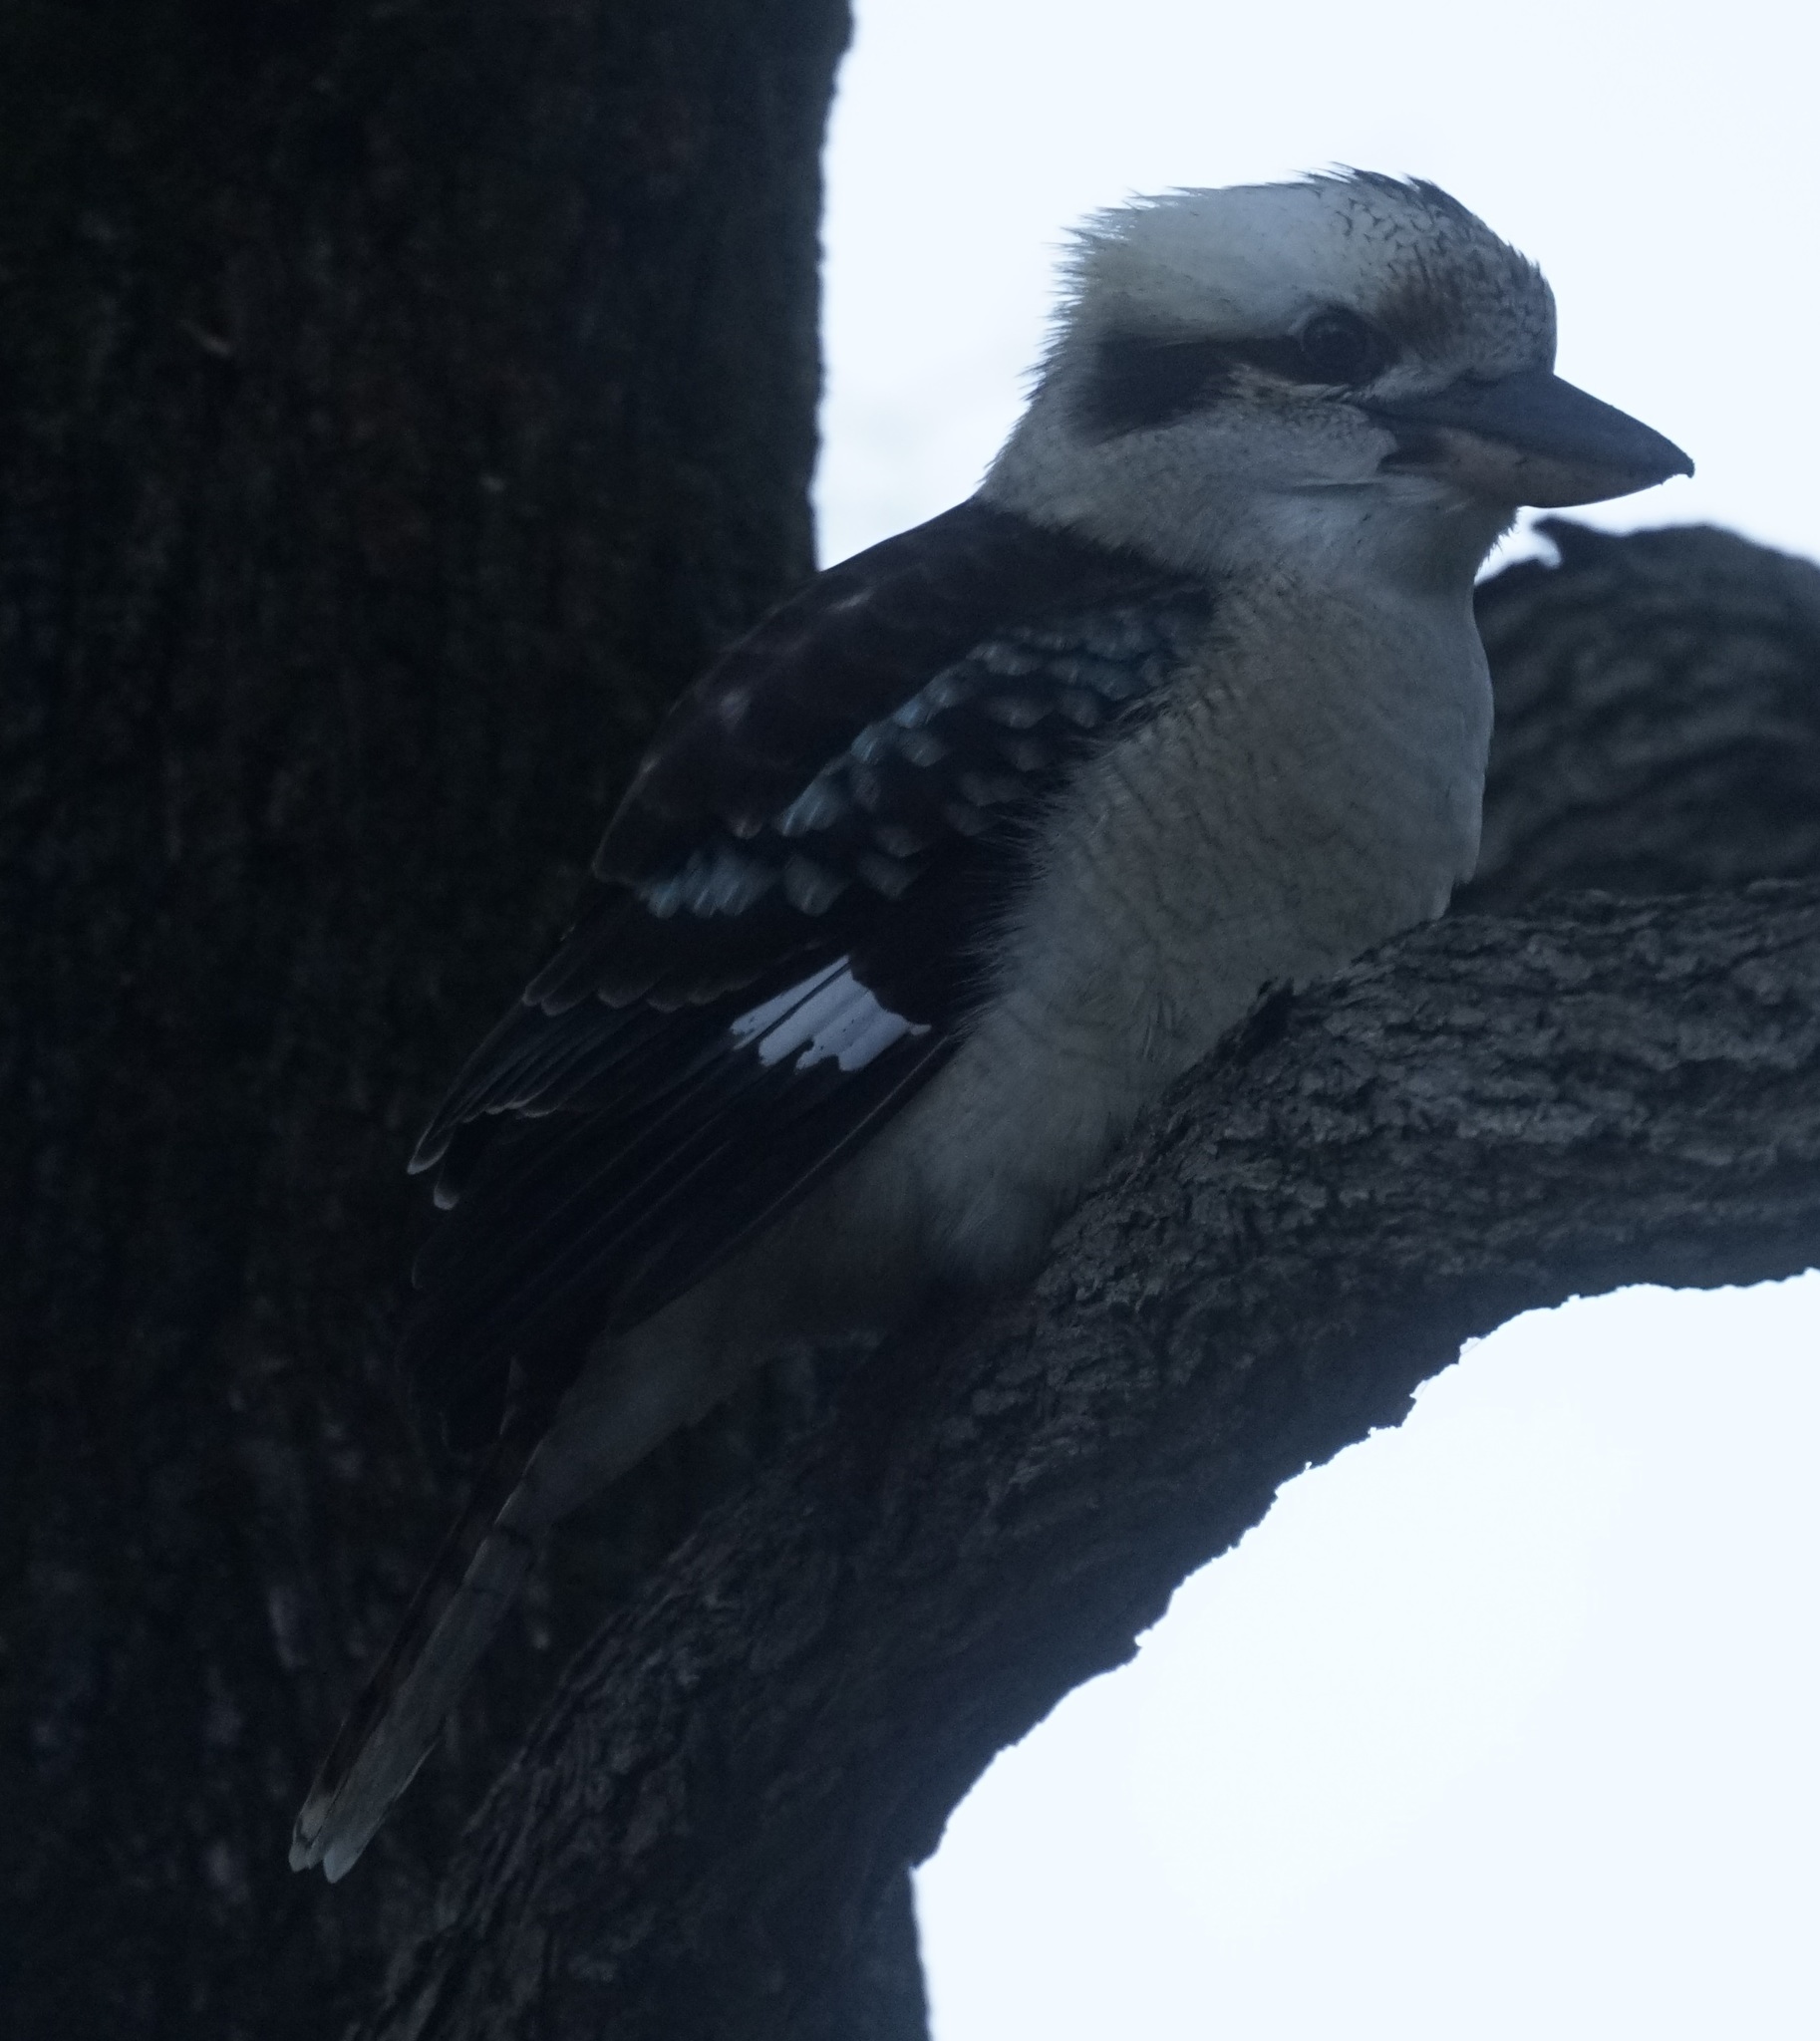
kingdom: Animalia
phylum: Chordata
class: Aves
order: Coraciiformes
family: Alcedinidae
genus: Dacelo
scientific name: Dacelo novaeguineae
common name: Laughing kookaburra
